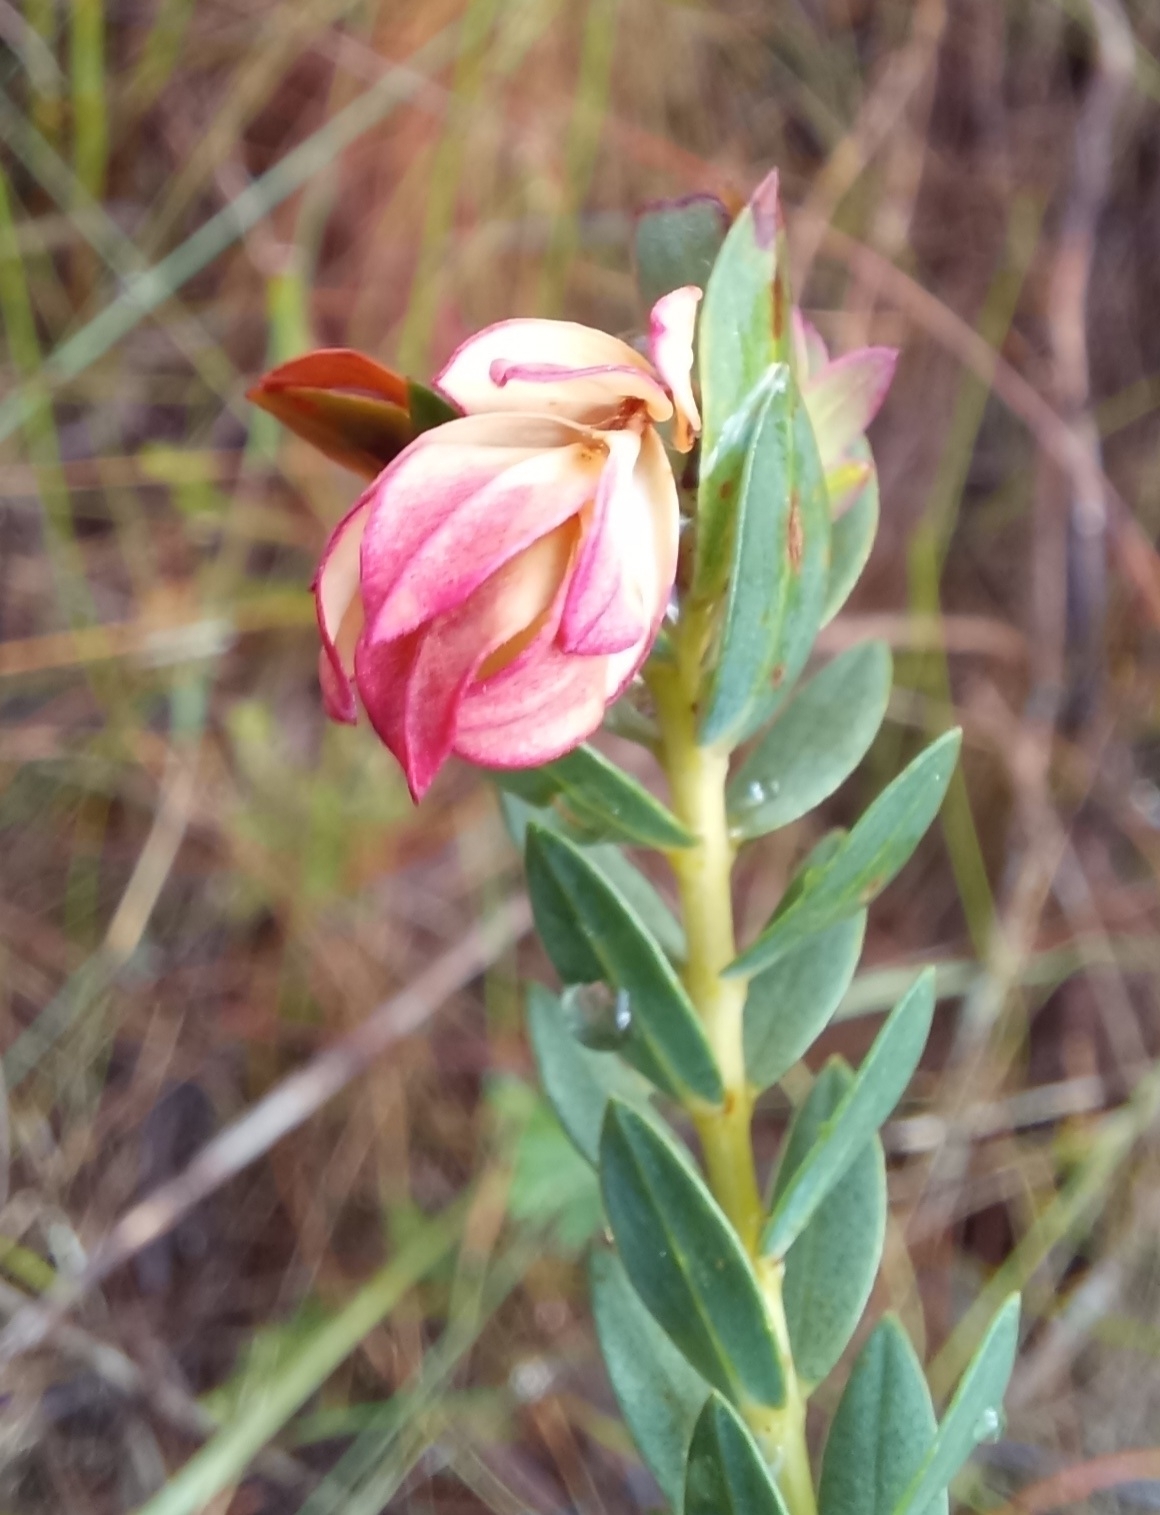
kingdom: Plantae
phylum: Tracheophyta
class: Magnoliopsida
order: Fabales
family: Fabaceae
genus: Liparia
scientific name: Liparia splendens
